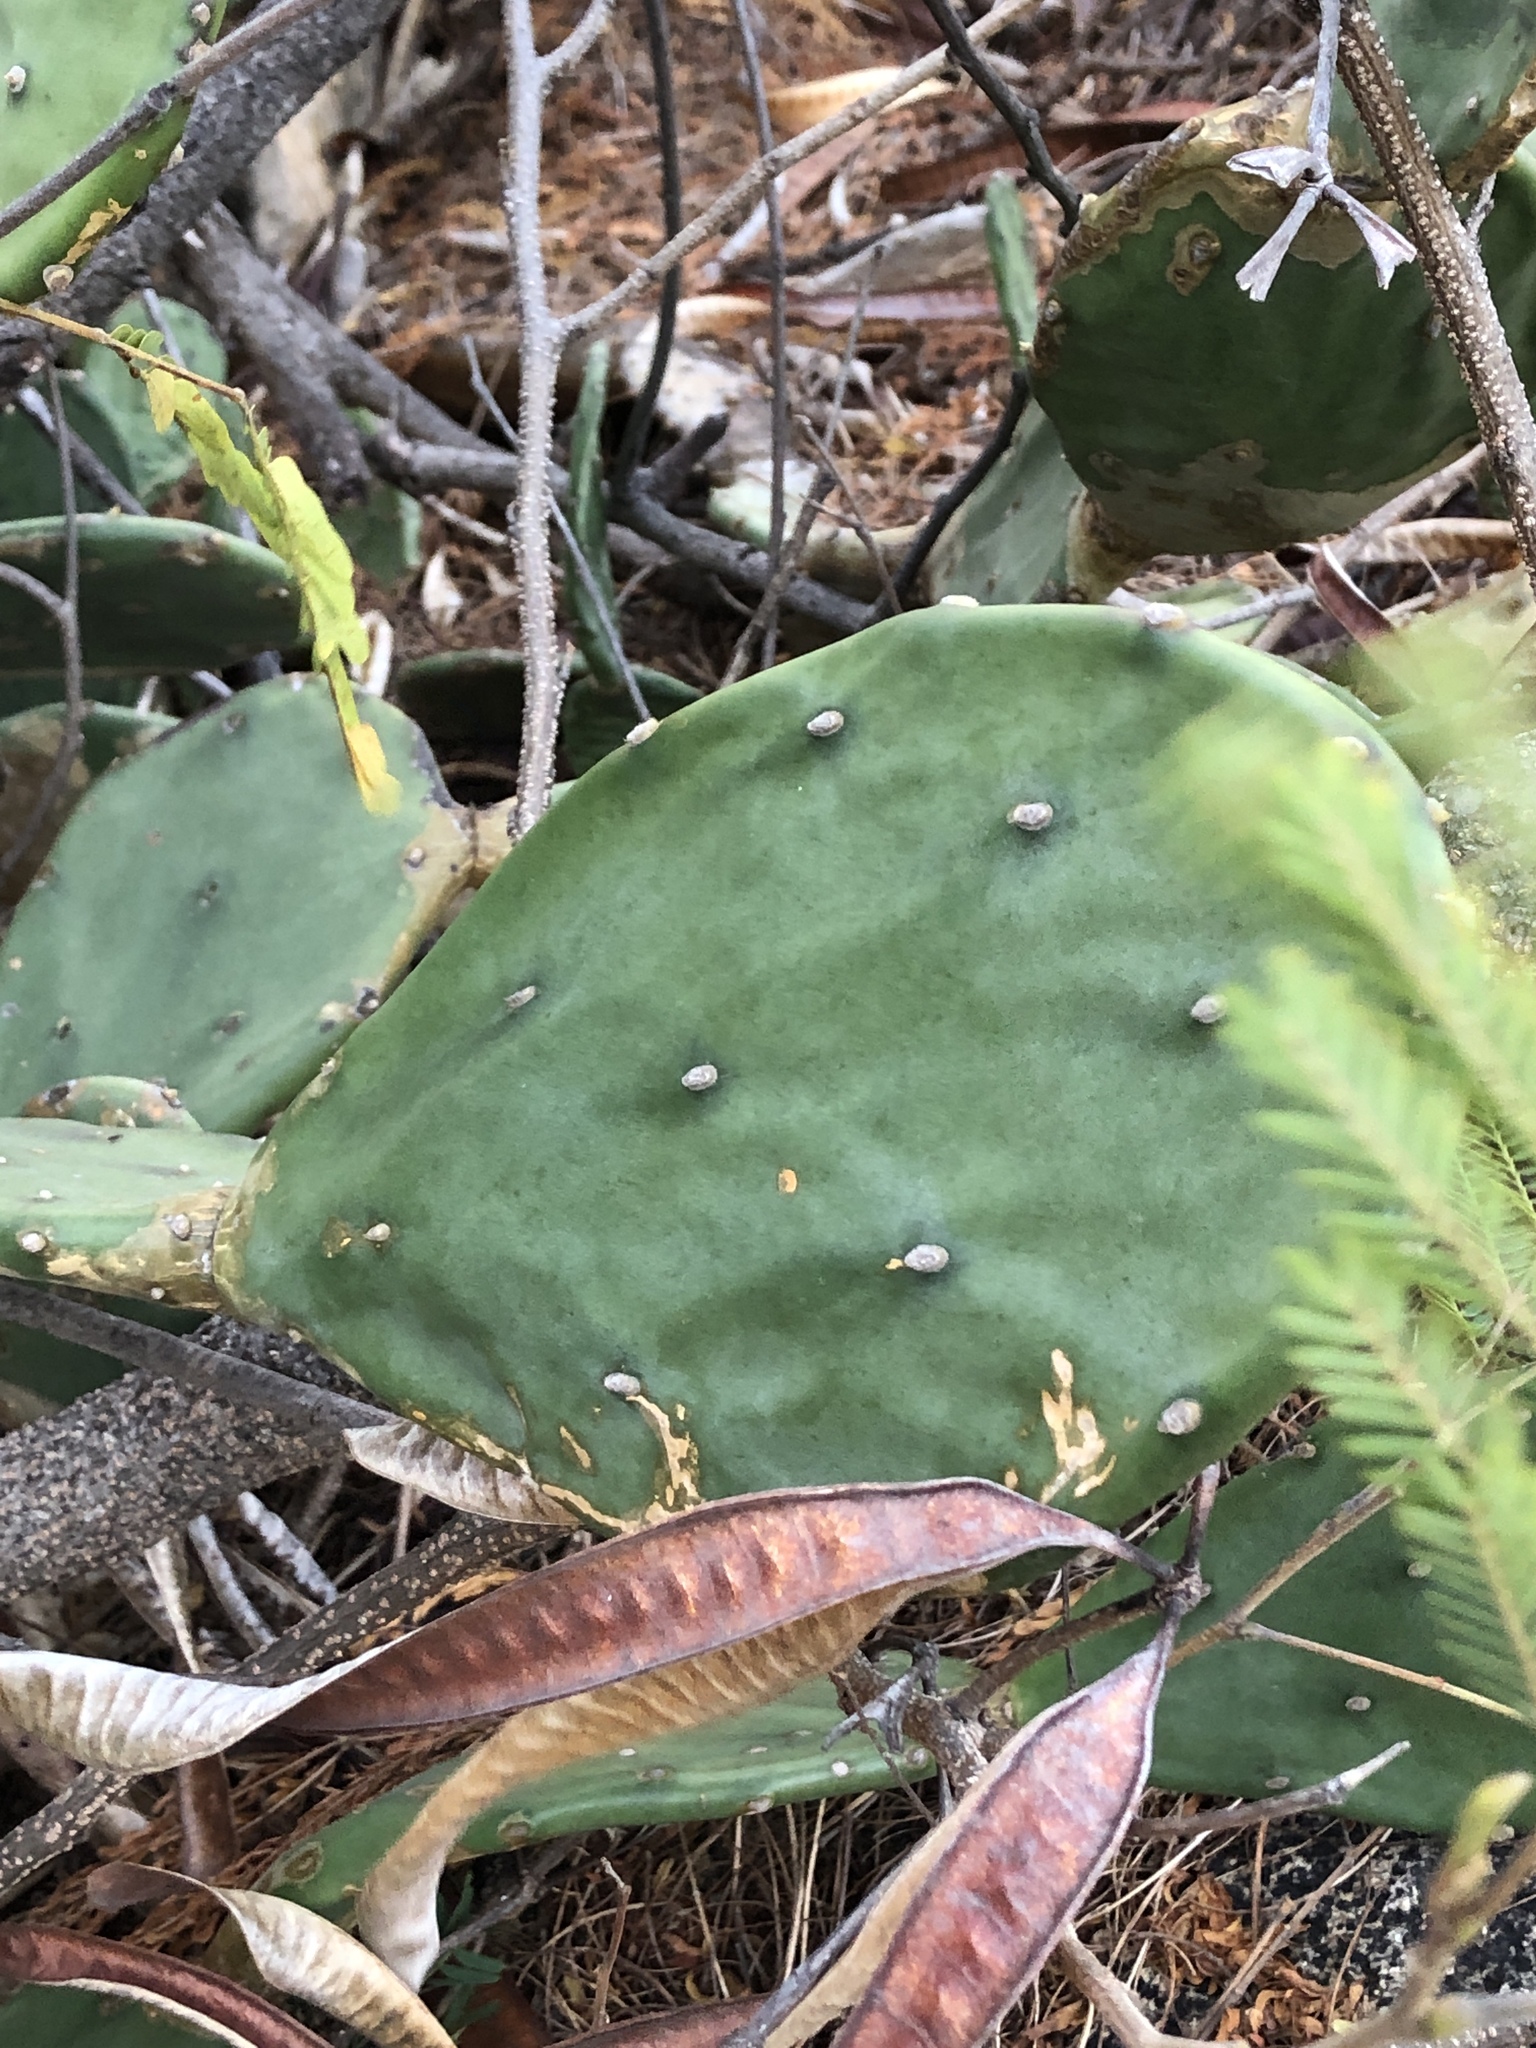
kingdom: Plantae
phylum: Tracheophyta
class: Magnoliopsida
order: Caryophyllales
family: Cactaceae
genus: Opuntia
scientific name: Opuntia stricta
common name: Erect pricklypear
